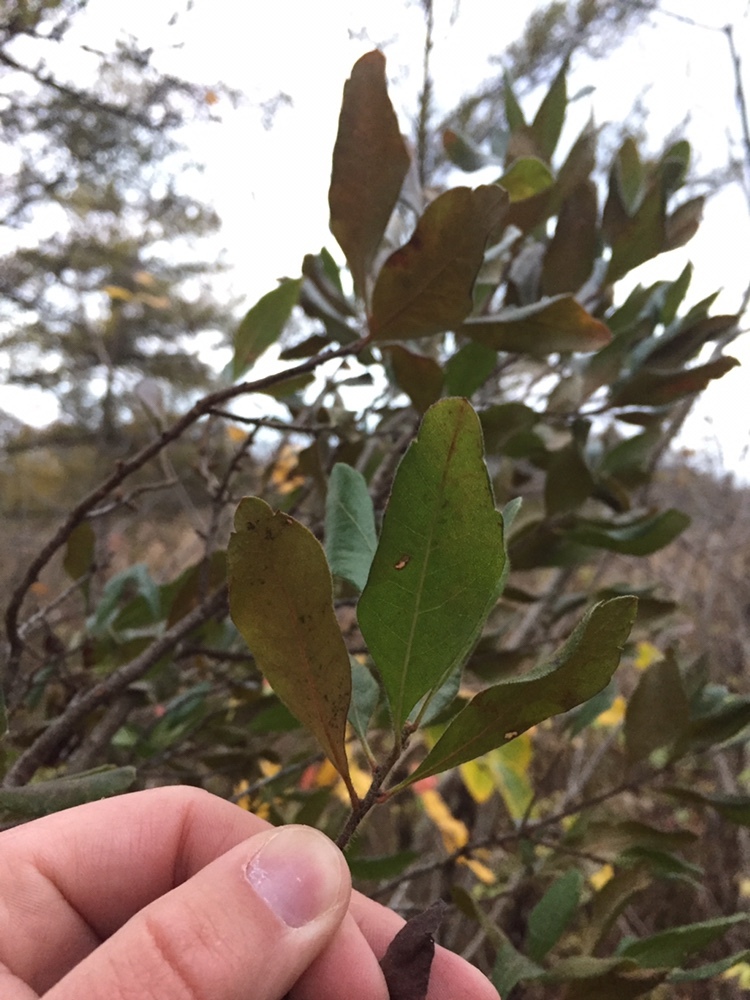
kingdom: Plantae
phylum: Tracheophyta
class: Magnoliopsida
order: Fagales
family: Myricaceae
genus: Morella
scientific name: Morella pensylvanica
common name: Northern bayberry
